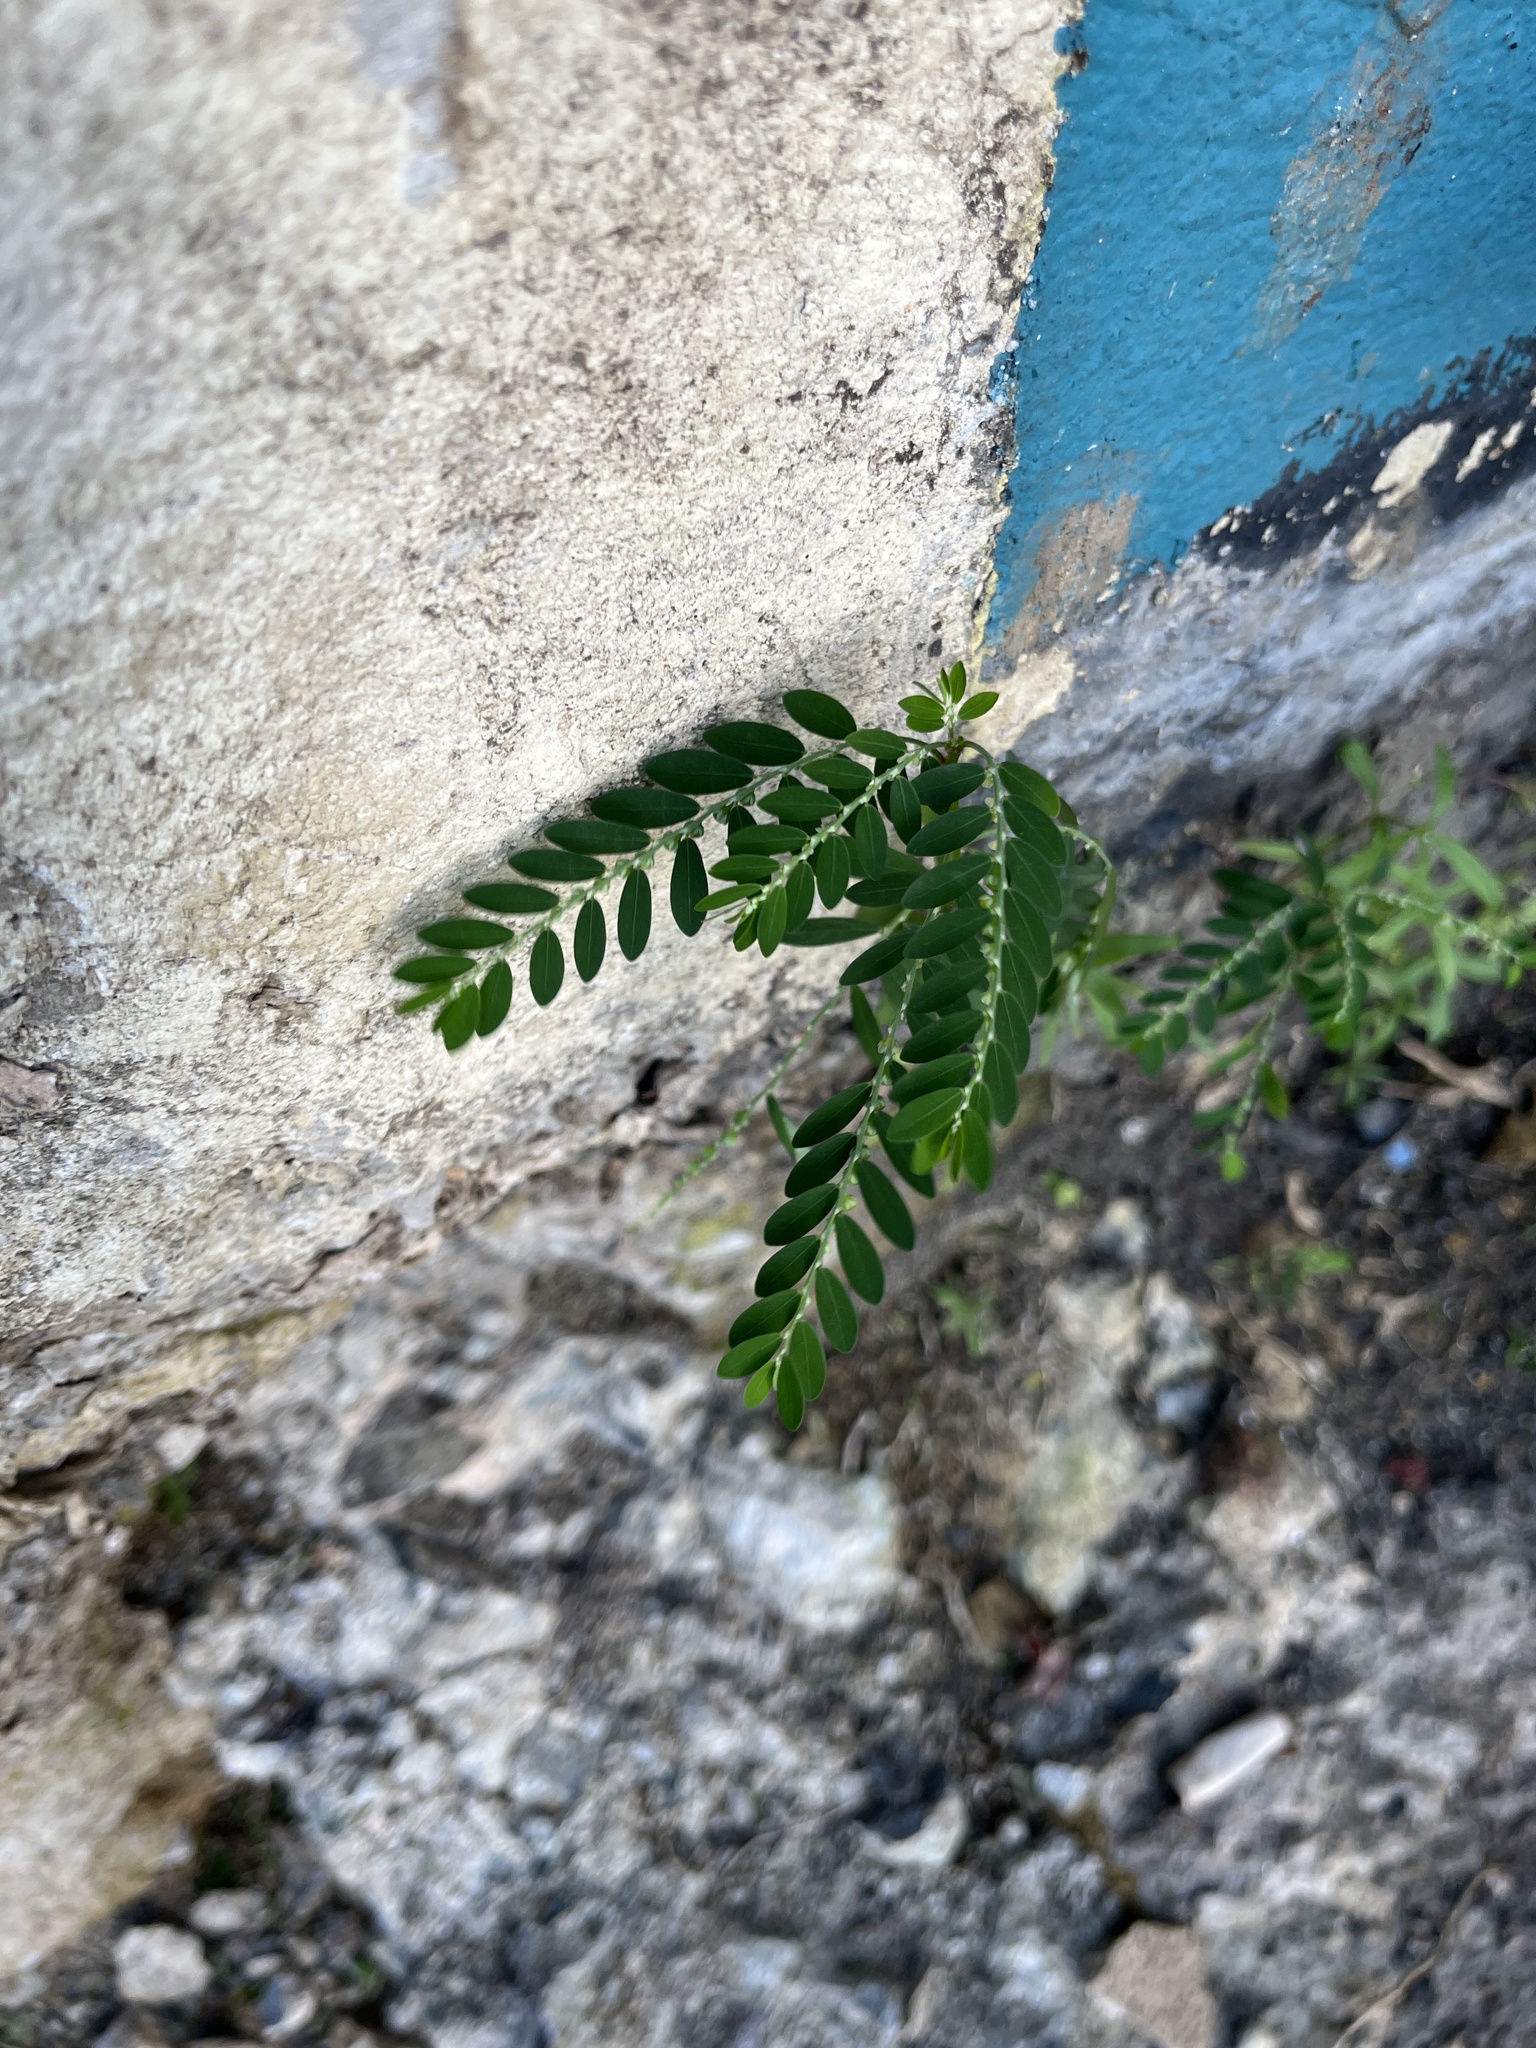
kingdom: Plantae
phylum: Tracheophyta
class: Magnoliopsida
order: Malpighiales
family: Phyllanthaceae
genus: Phyllanthus
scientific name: Phyllanthus debilis
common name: Niruri
